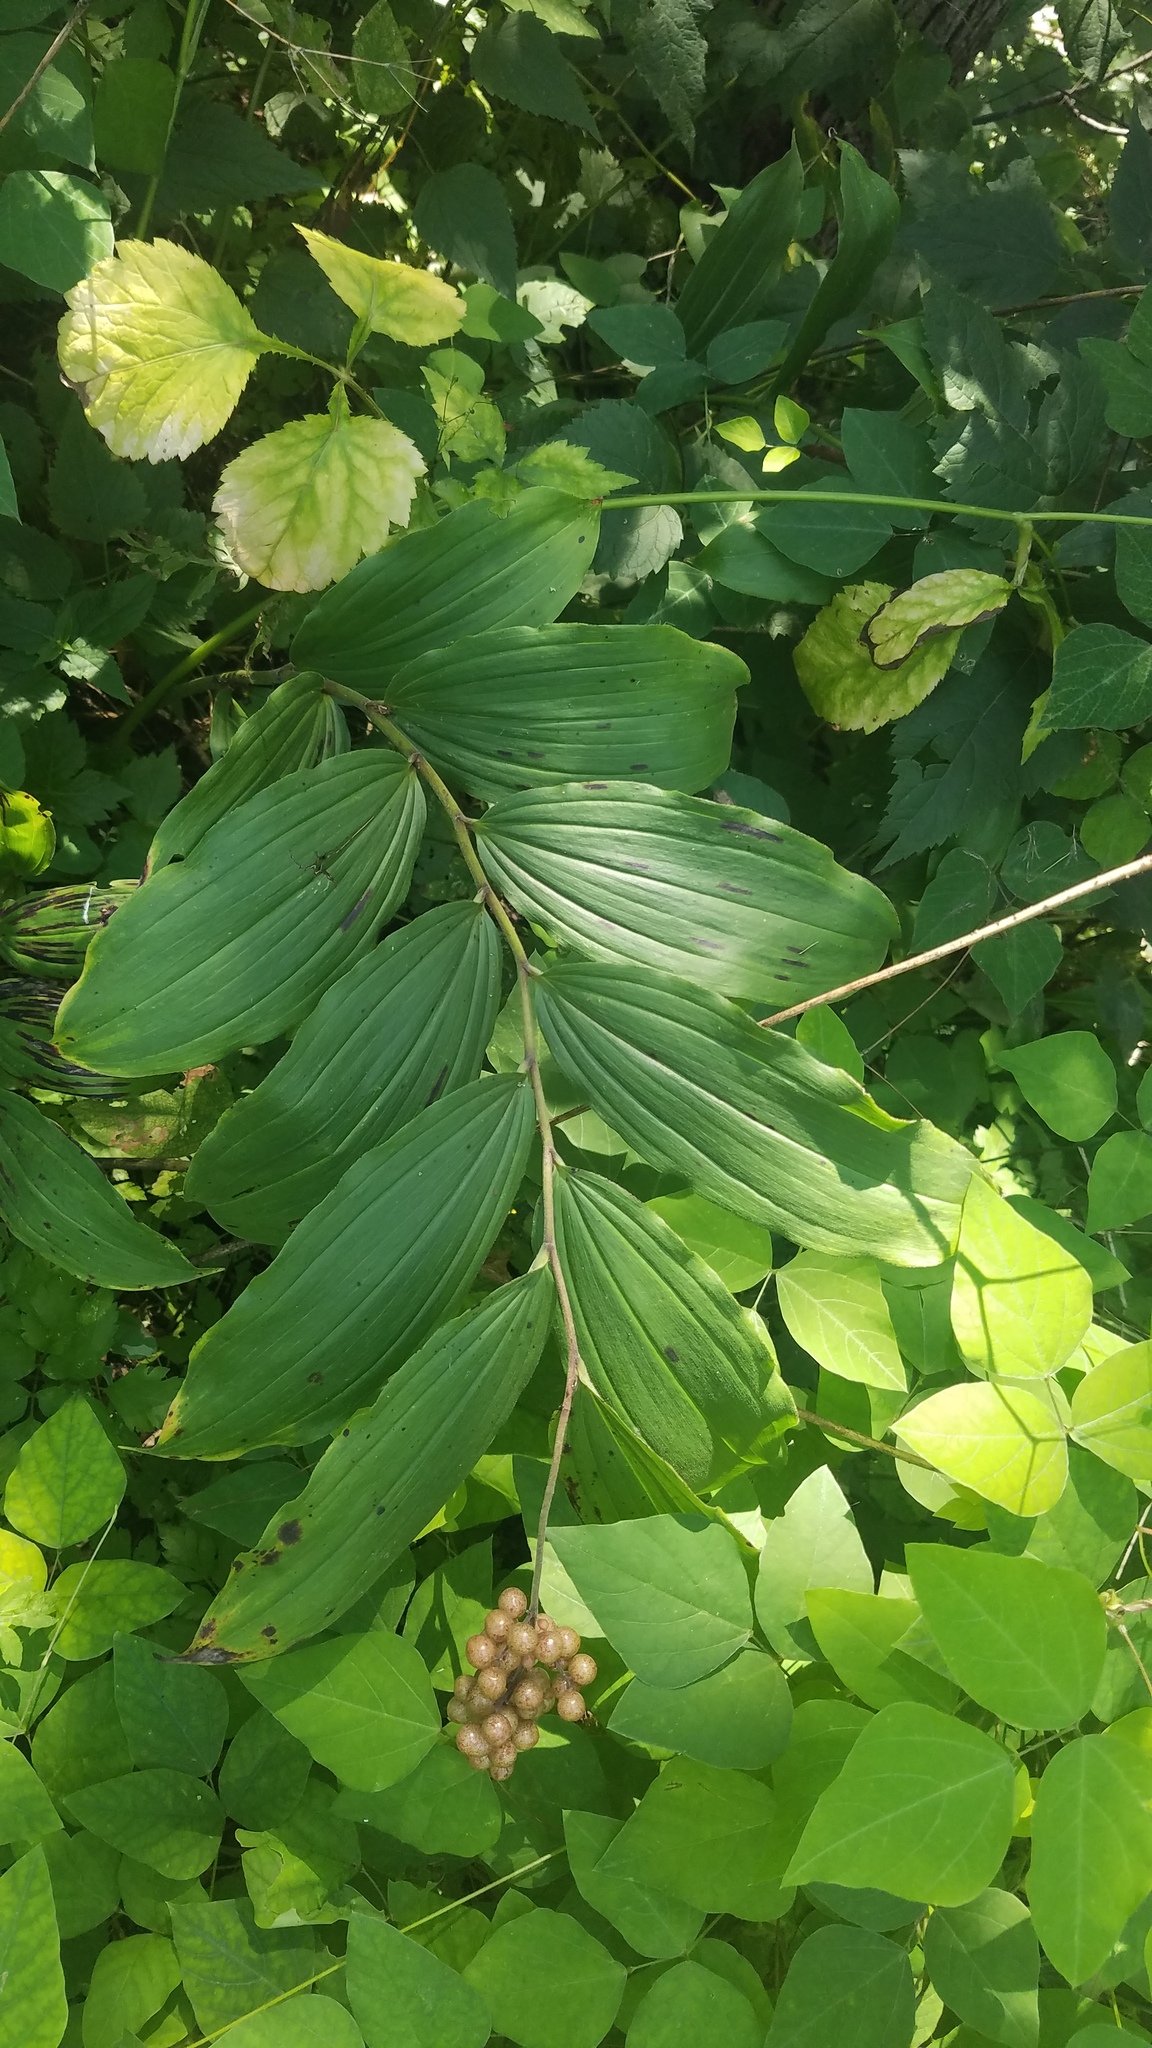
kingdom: Plantae
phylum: Tracheophyta
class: Liliopsida
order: Asparagales
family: Asparagaceae
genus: Maianthemum
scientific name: Maianthemum racemosum
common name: False spikenard
